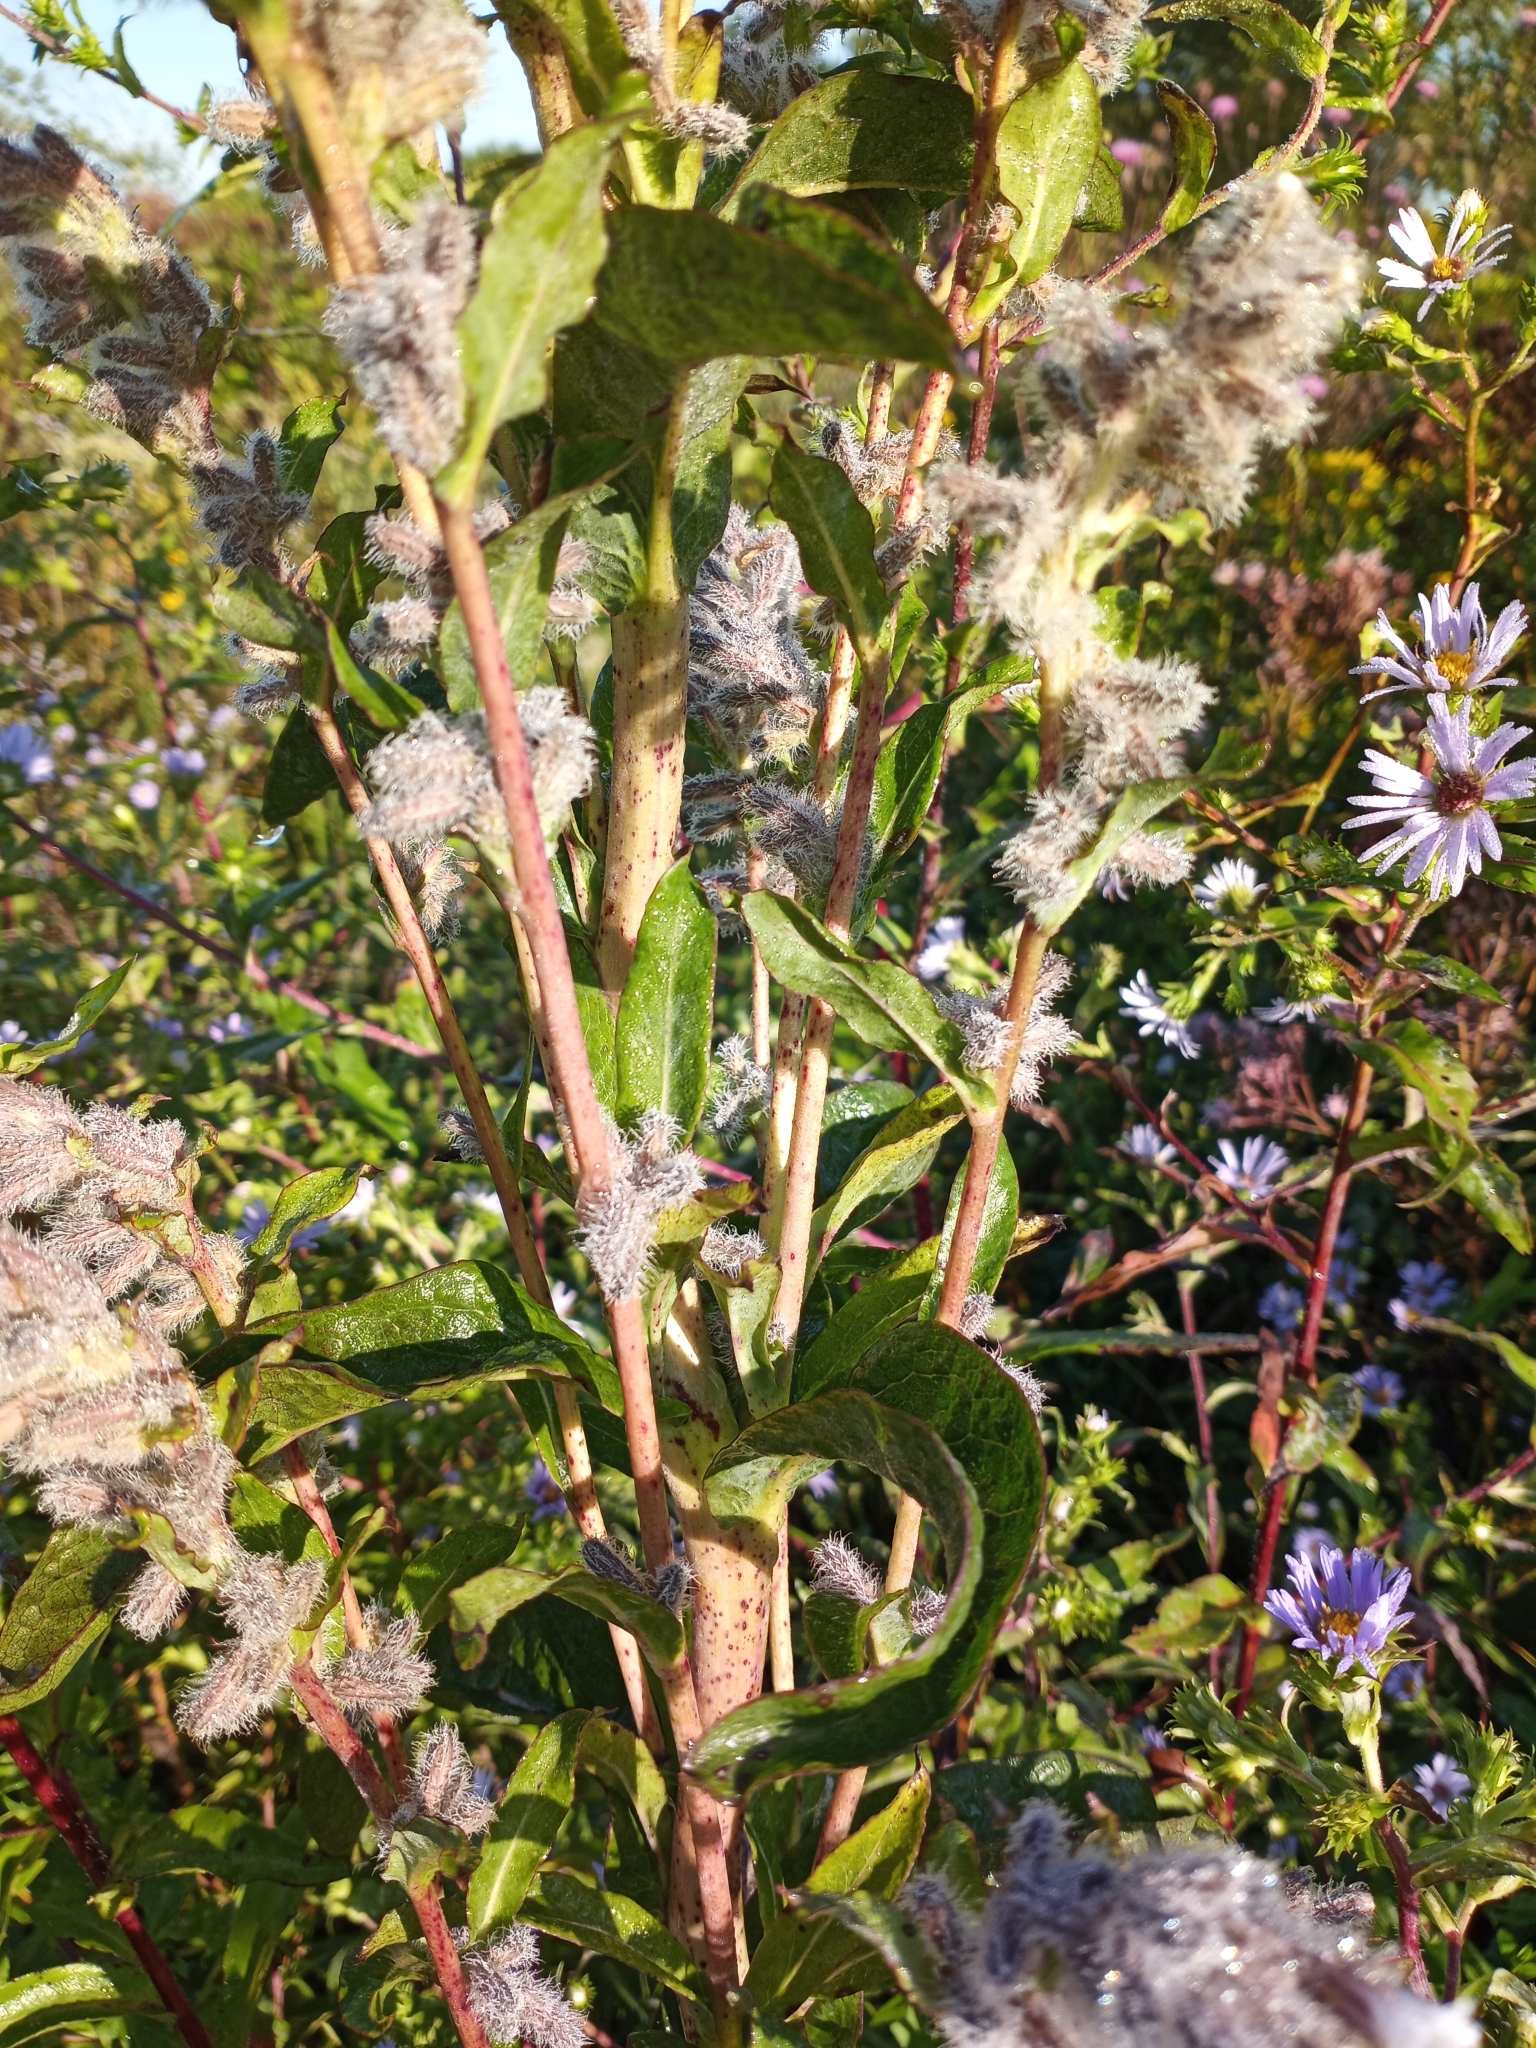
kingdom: Plantae
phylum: Tracheophyta
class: Magnoliopsida
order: Asterales
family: Asteraceae
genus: Nabalus
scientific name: Nabalus racemosus
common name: Glaucous white lettuce
